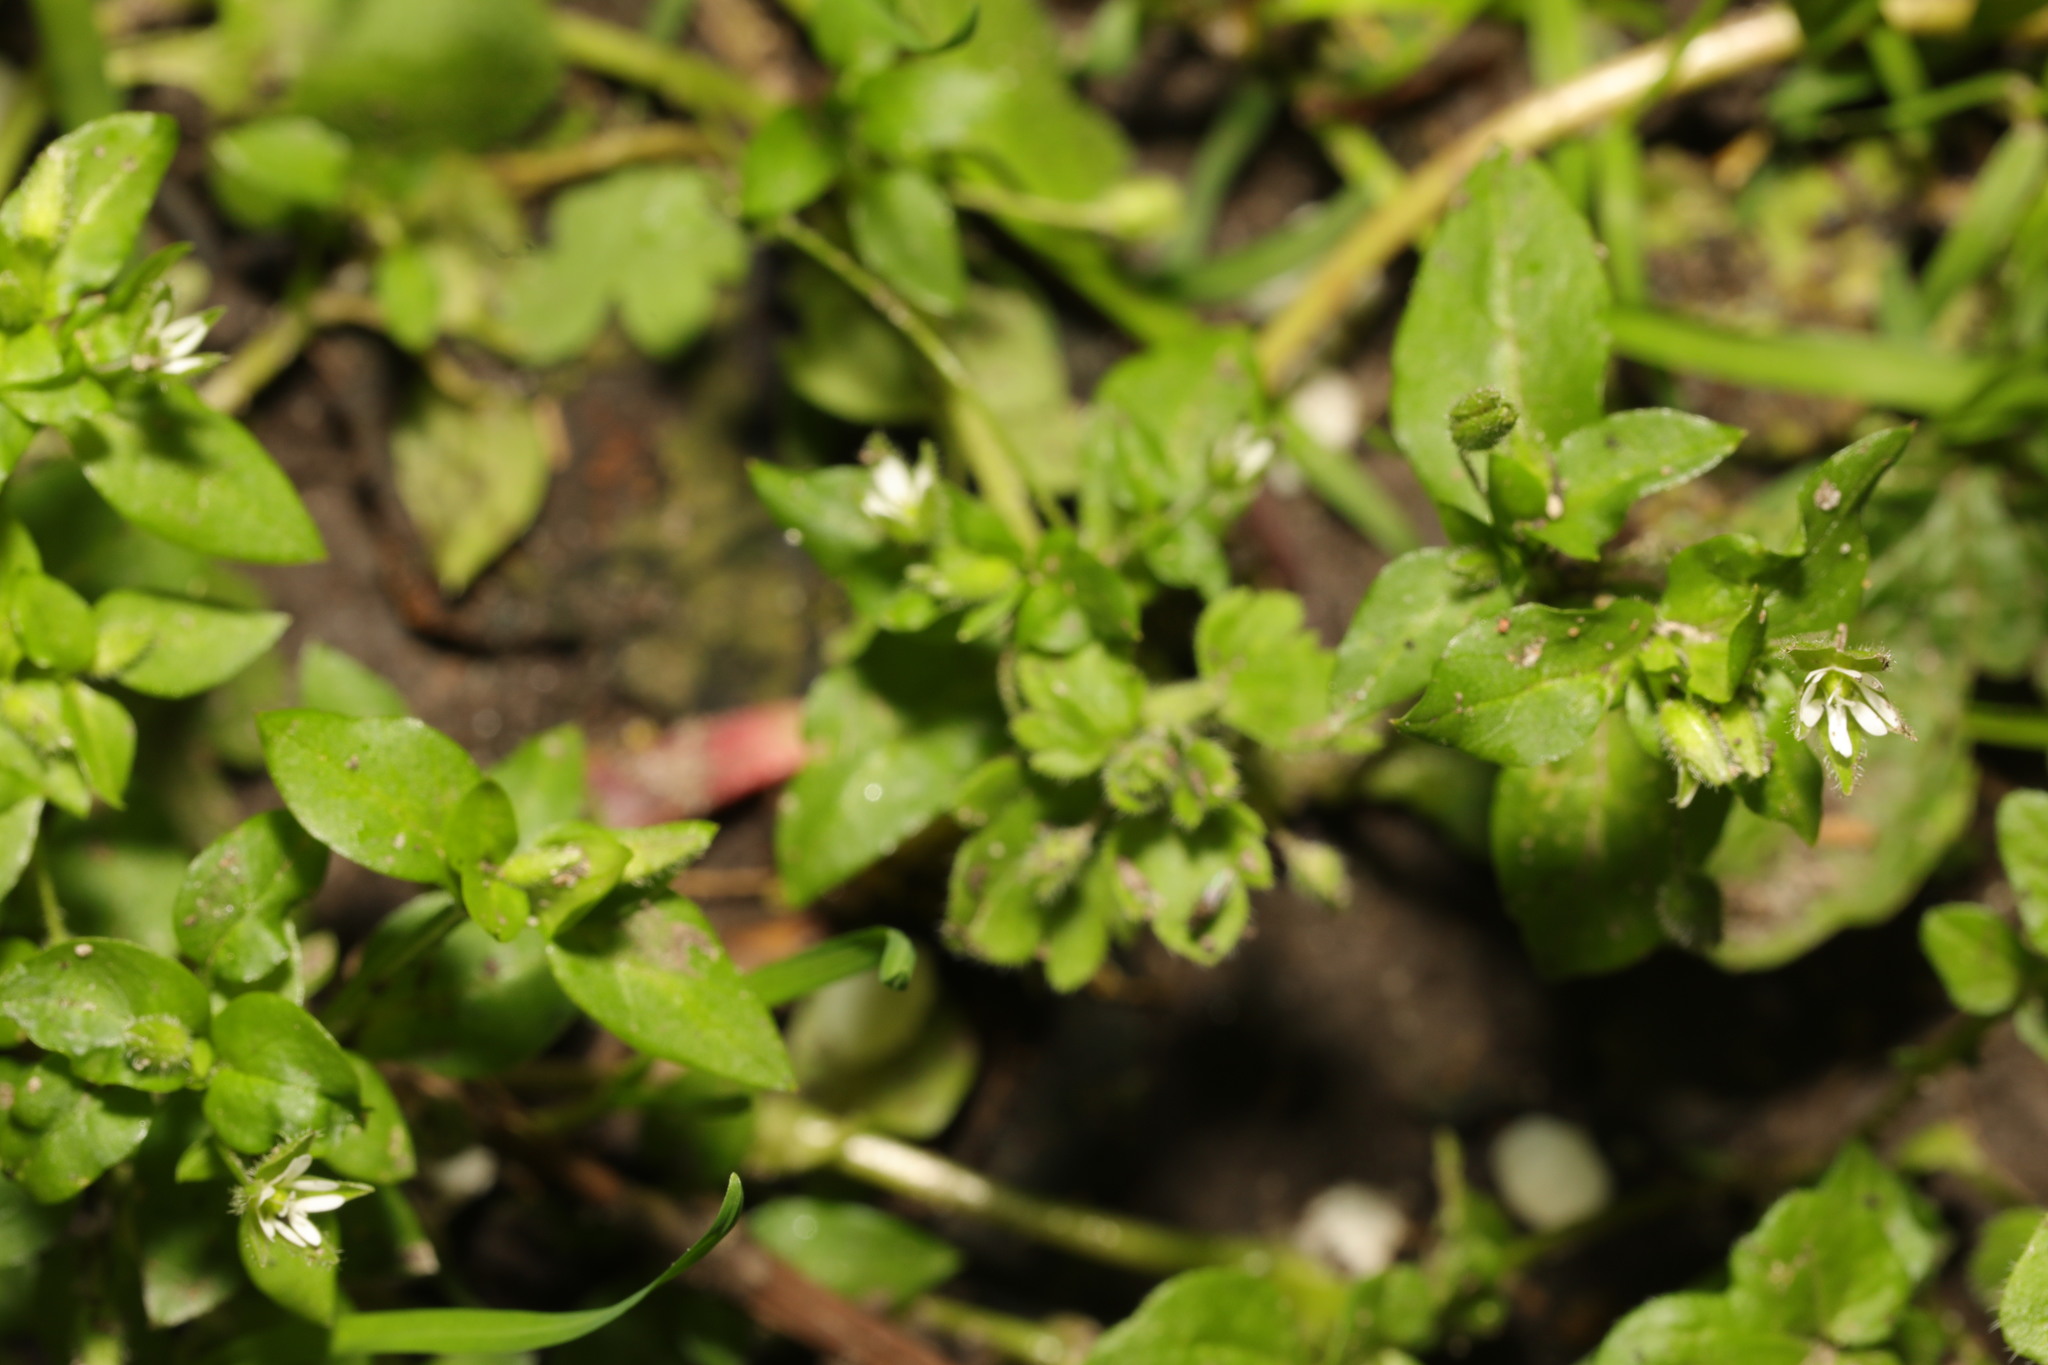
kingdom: Plantae
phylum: Tracheophyta
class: Magnoliopsida
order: Caryophyllales
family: Caryophyllaceae
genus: Stellaria
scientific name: Stellaria media
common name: Common chickweed
